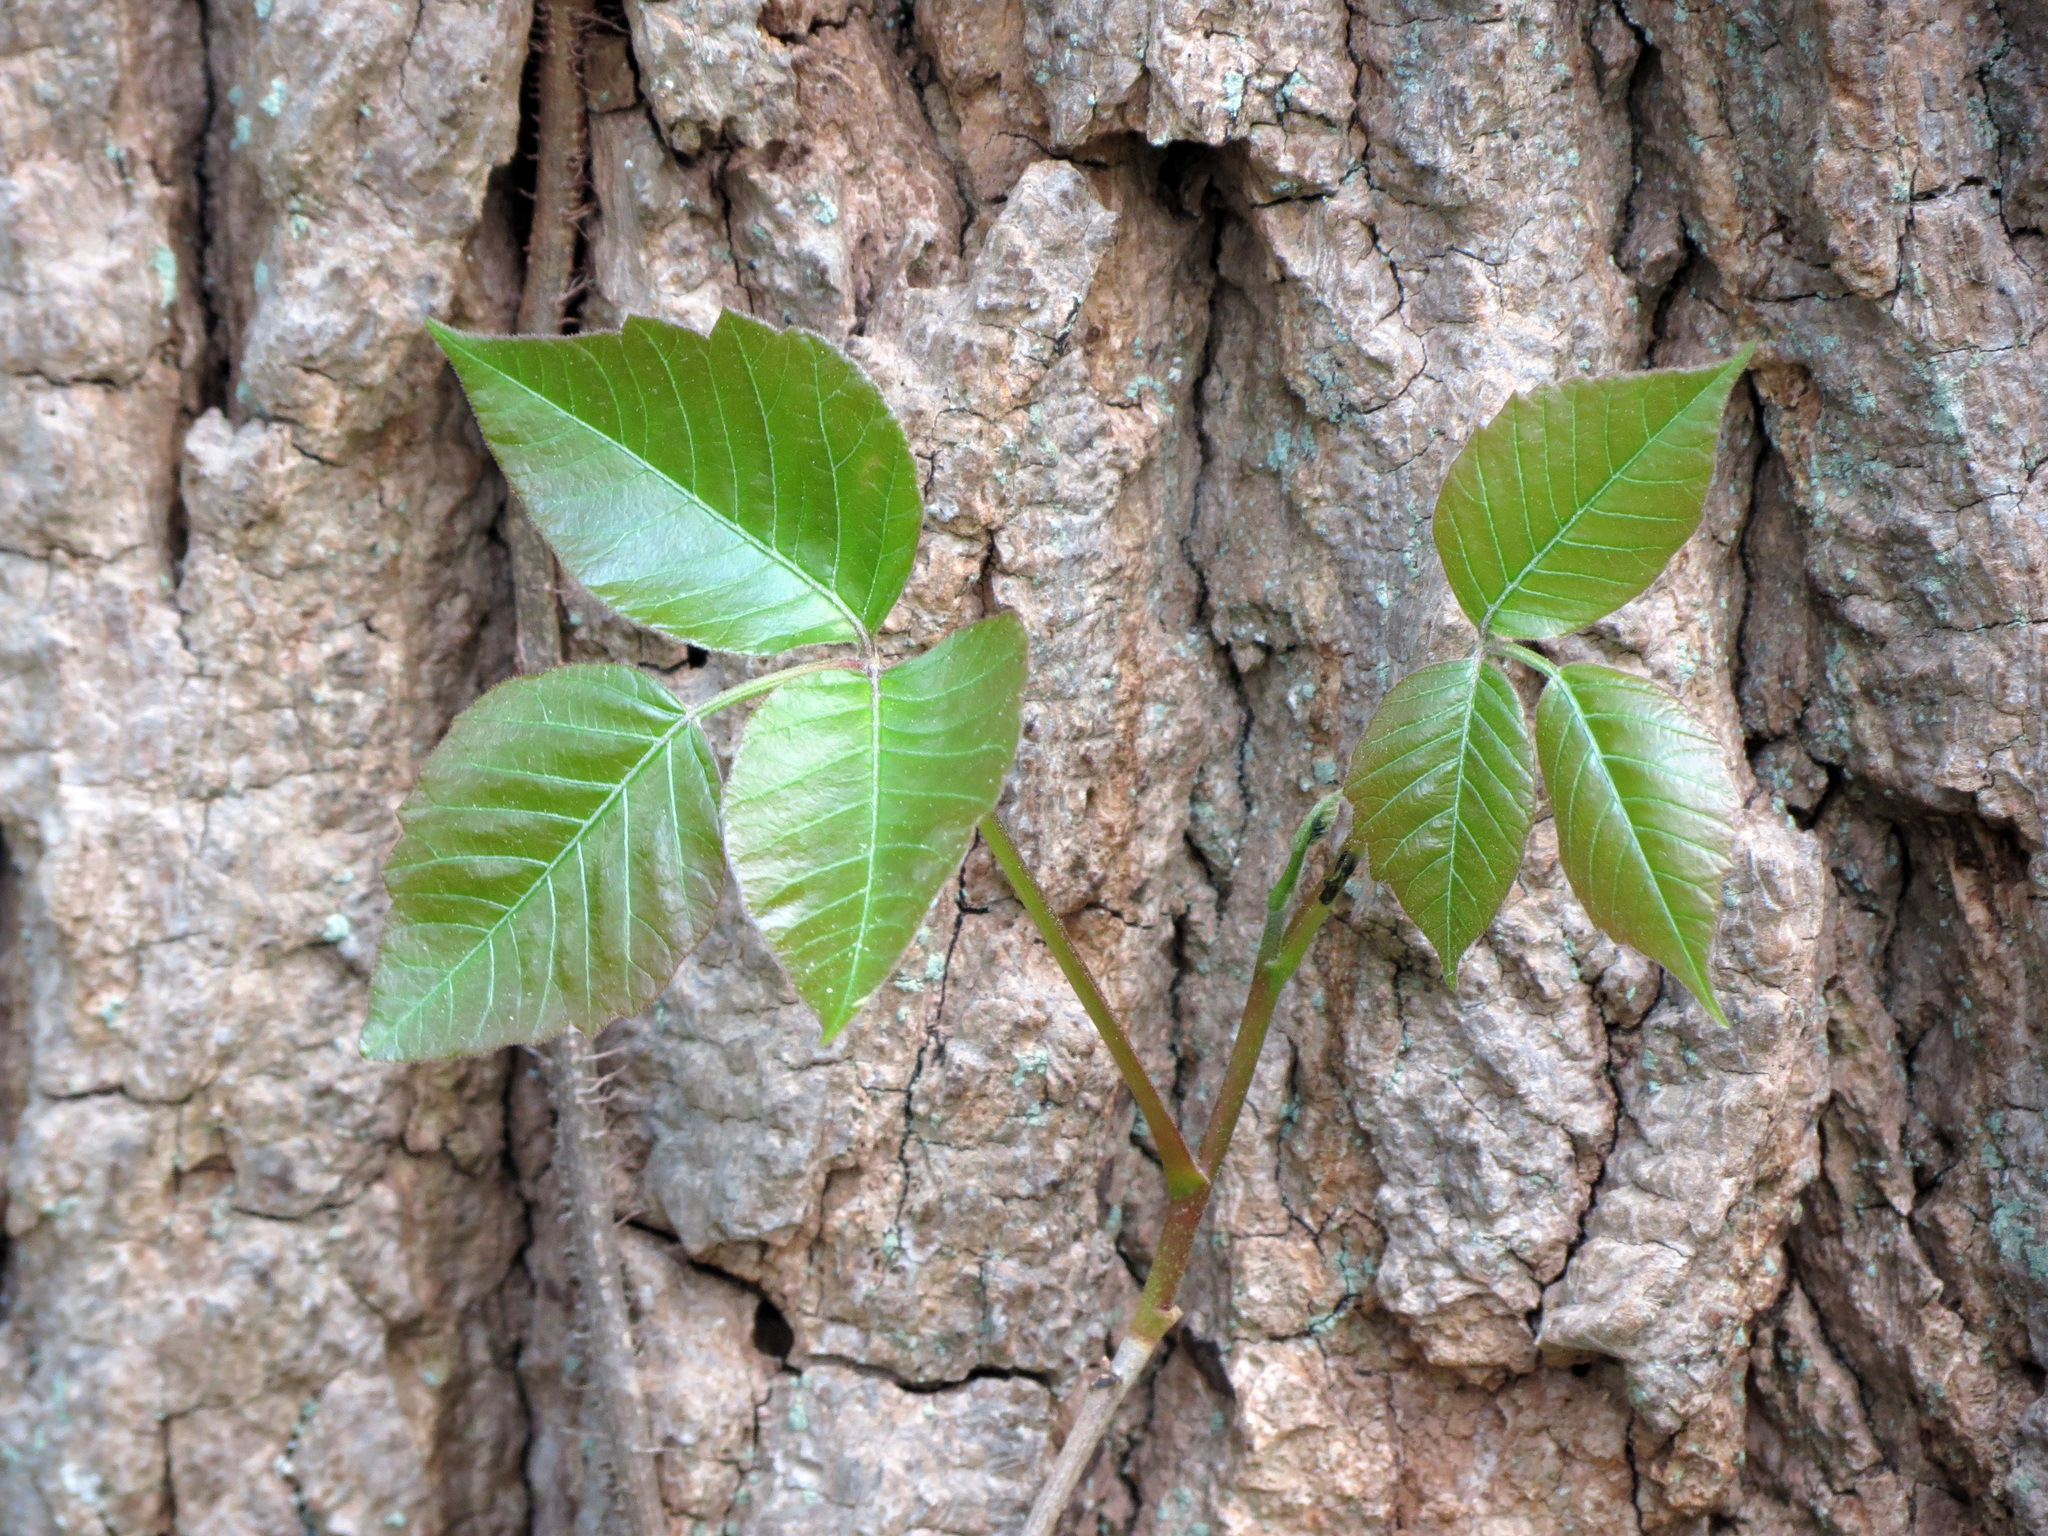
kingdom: Plantae
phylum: Tracheophyta
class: Magnoliopsida
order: Sapindales
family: Anacardiaceae
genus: Toxicodendron
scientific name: Toxicodendron radicans
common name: Poison ivy
